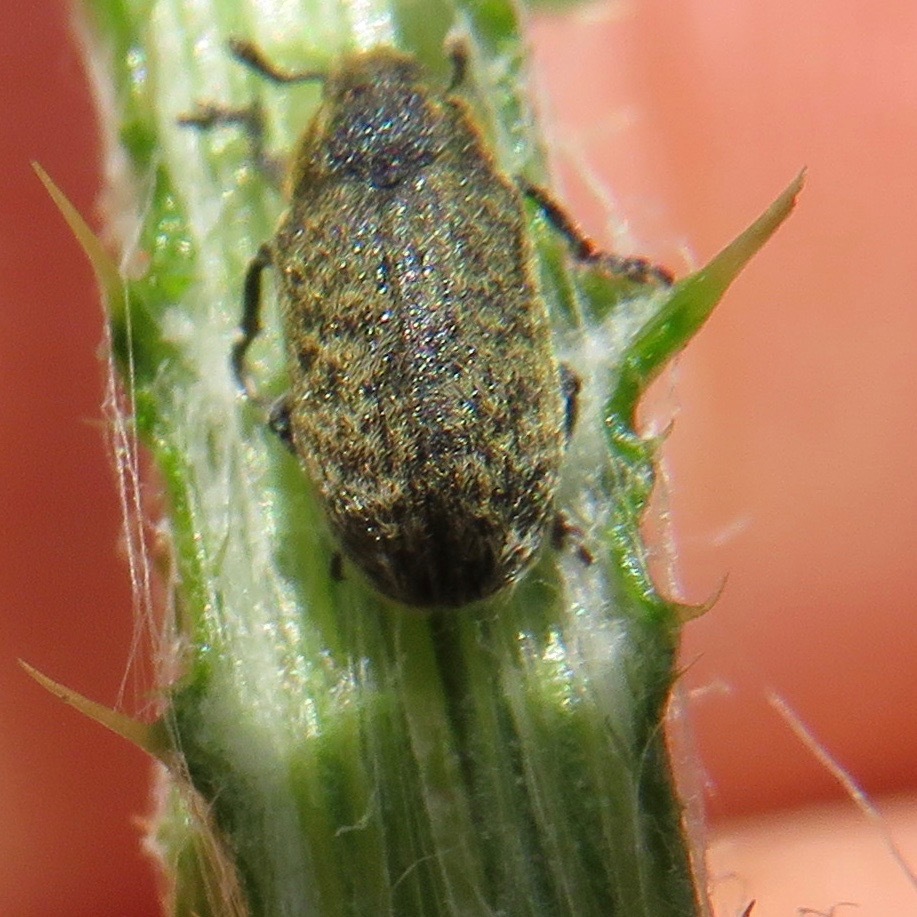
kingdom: Animalia
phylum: Arthropoda
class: Insecta
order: Coleoptera
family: Curculionidae
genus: Rhinocyllus
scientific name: Rhinocyllus conicus
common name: Weevil
